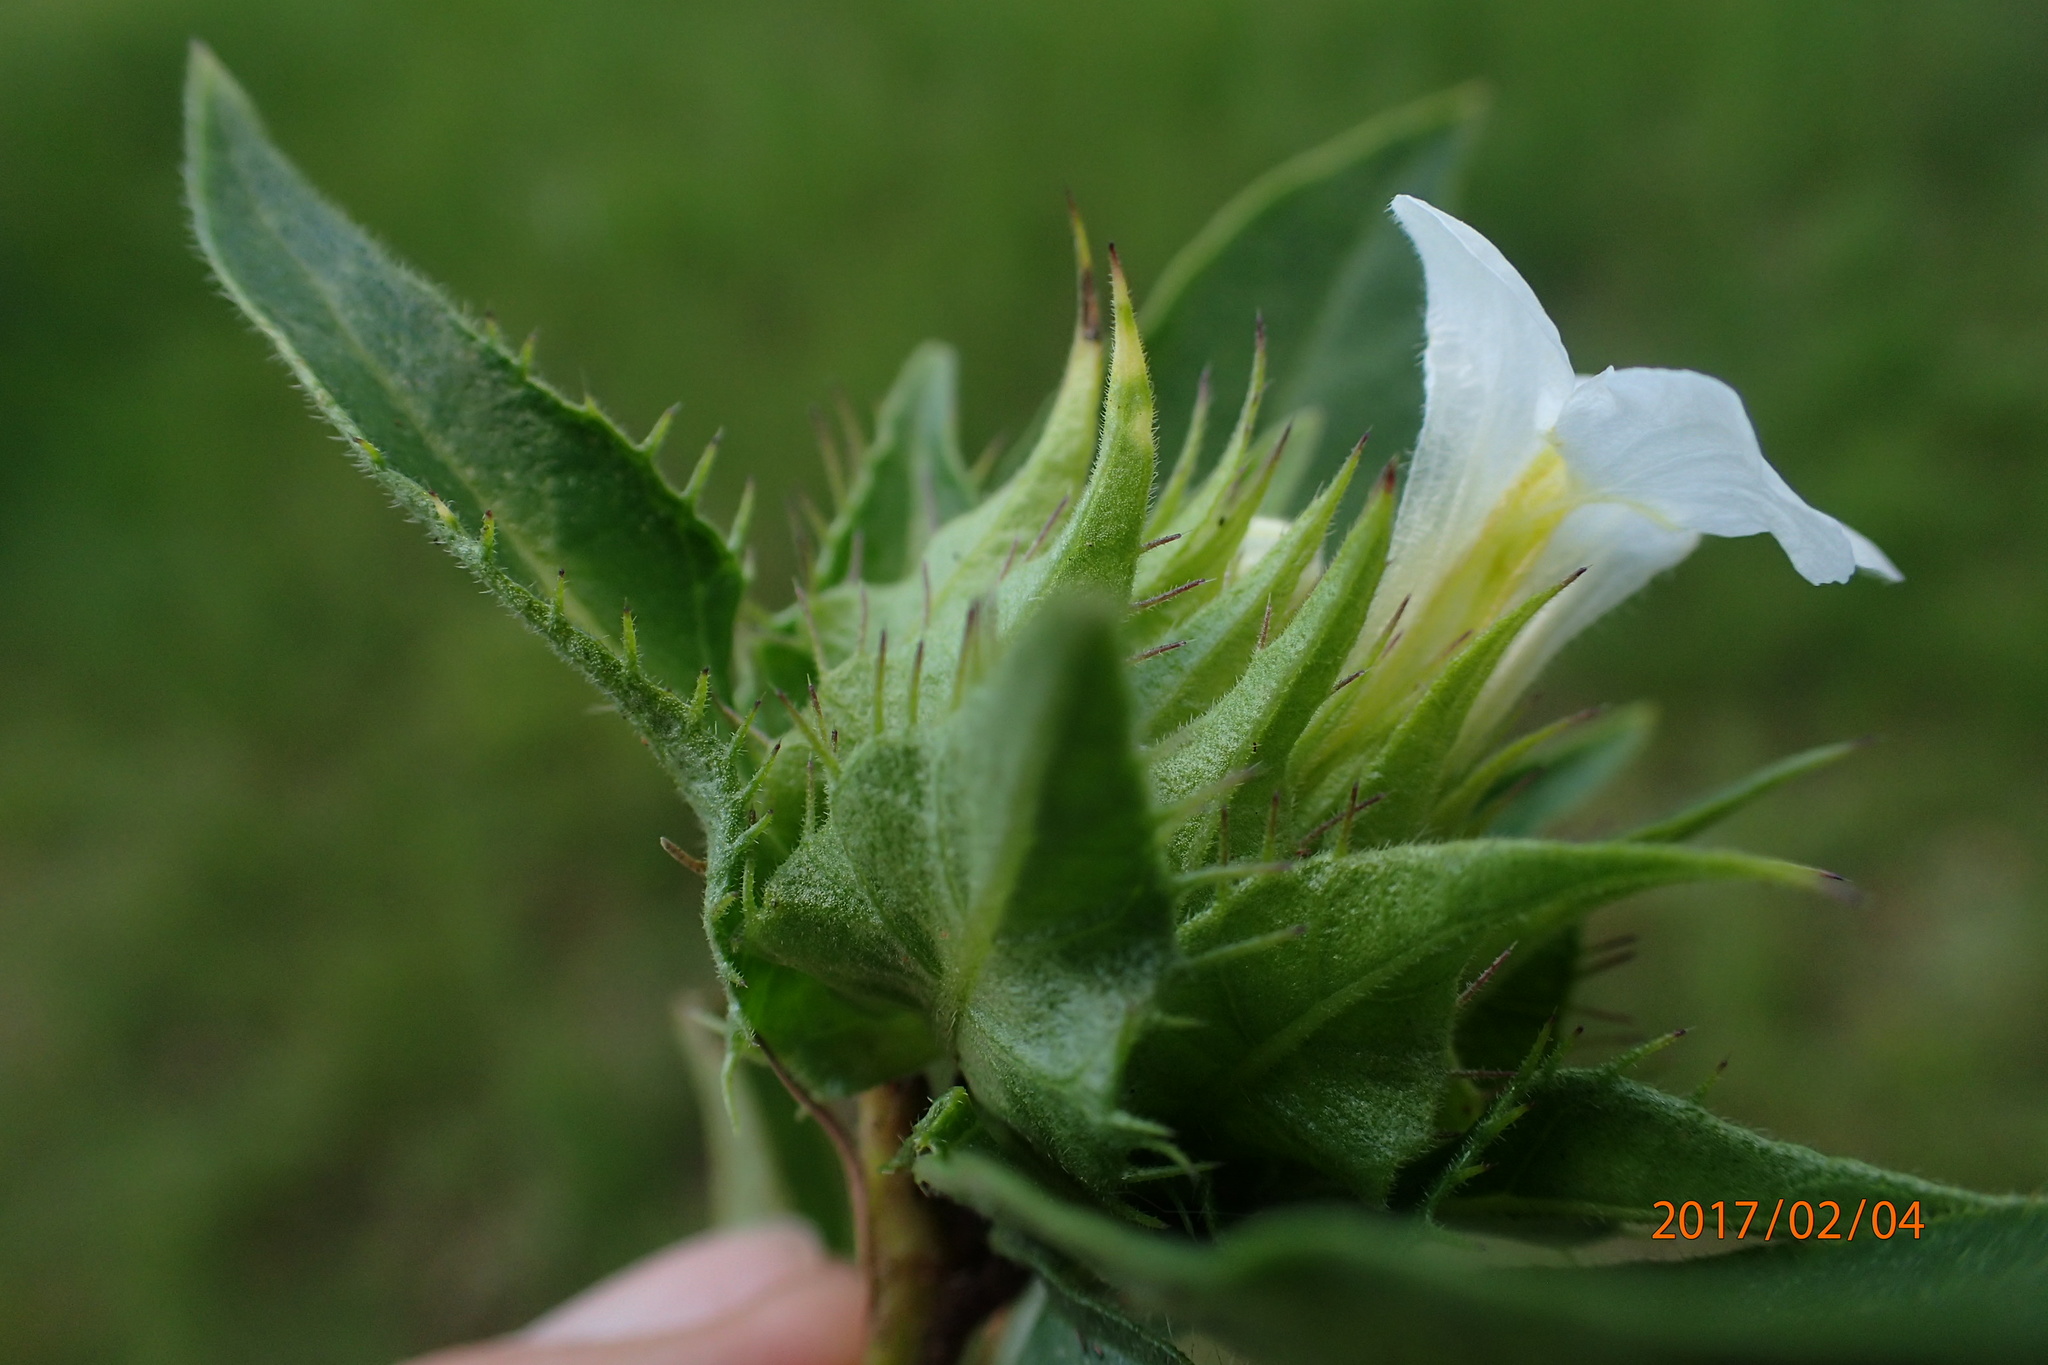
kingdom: Plantae
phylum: Tracheophyta
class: Magnoliopsida
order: Lamiales
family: Acanthaceae
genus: Crabbea
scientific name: Crabbea cirsioides
